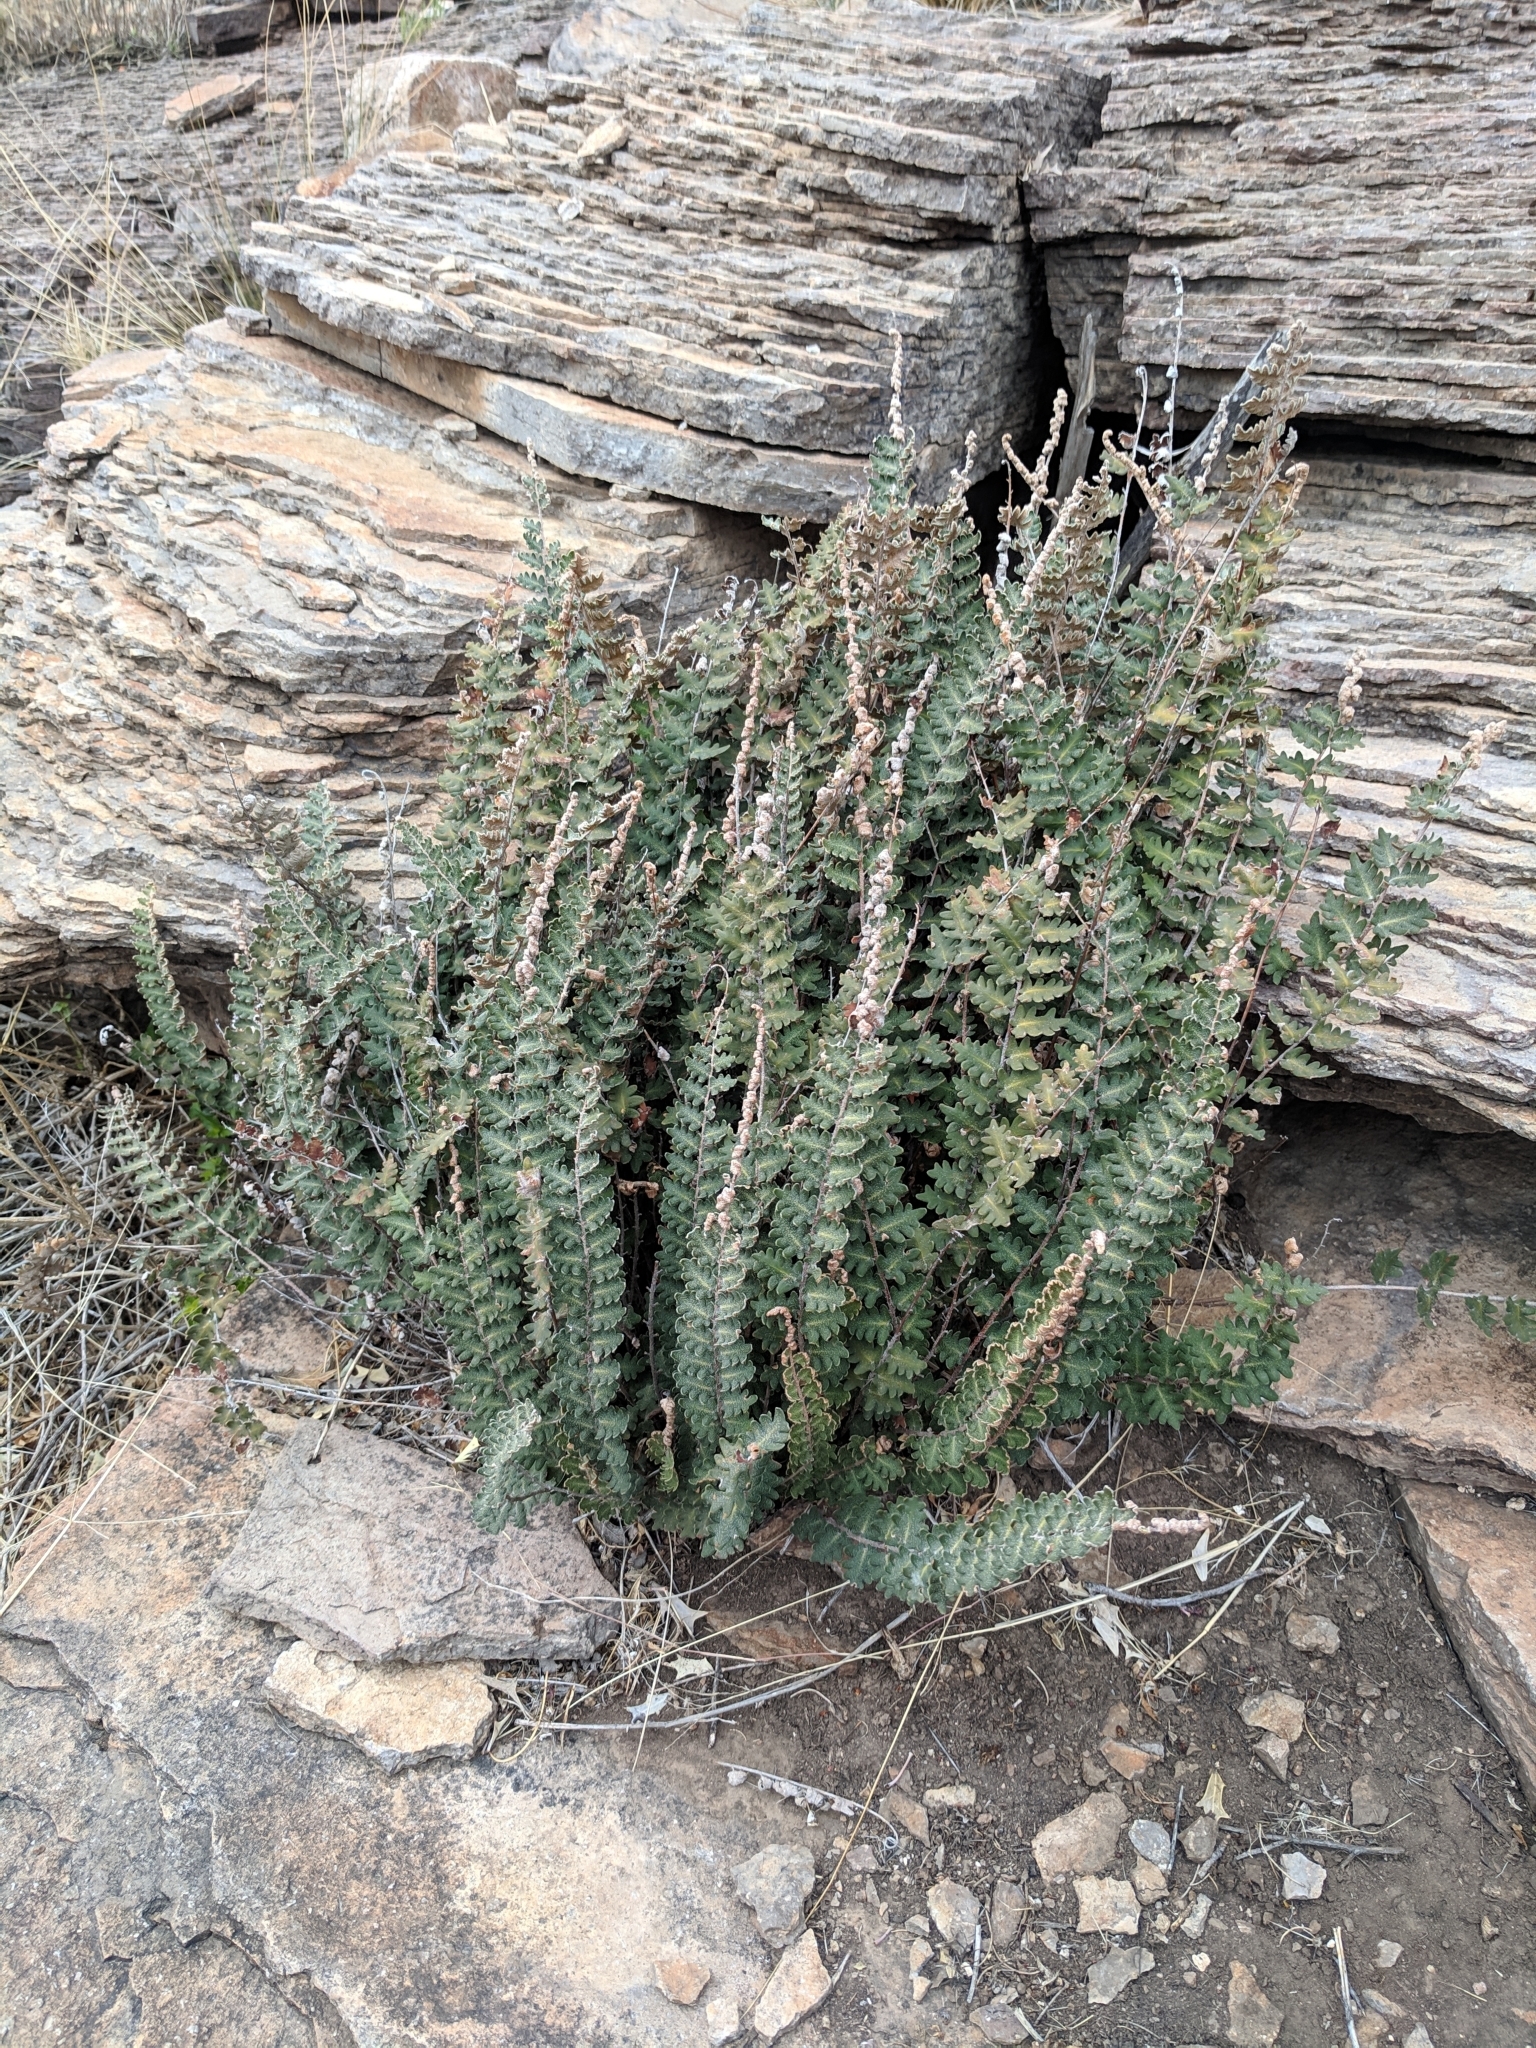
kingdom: Plantae
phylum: Tracheophyta
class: Polypodiopsida
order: Polypodiales
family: Pteridaceae
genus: Astrolepis
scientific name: Astrolepis sinuata
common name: Wavy scaly cloakfern
